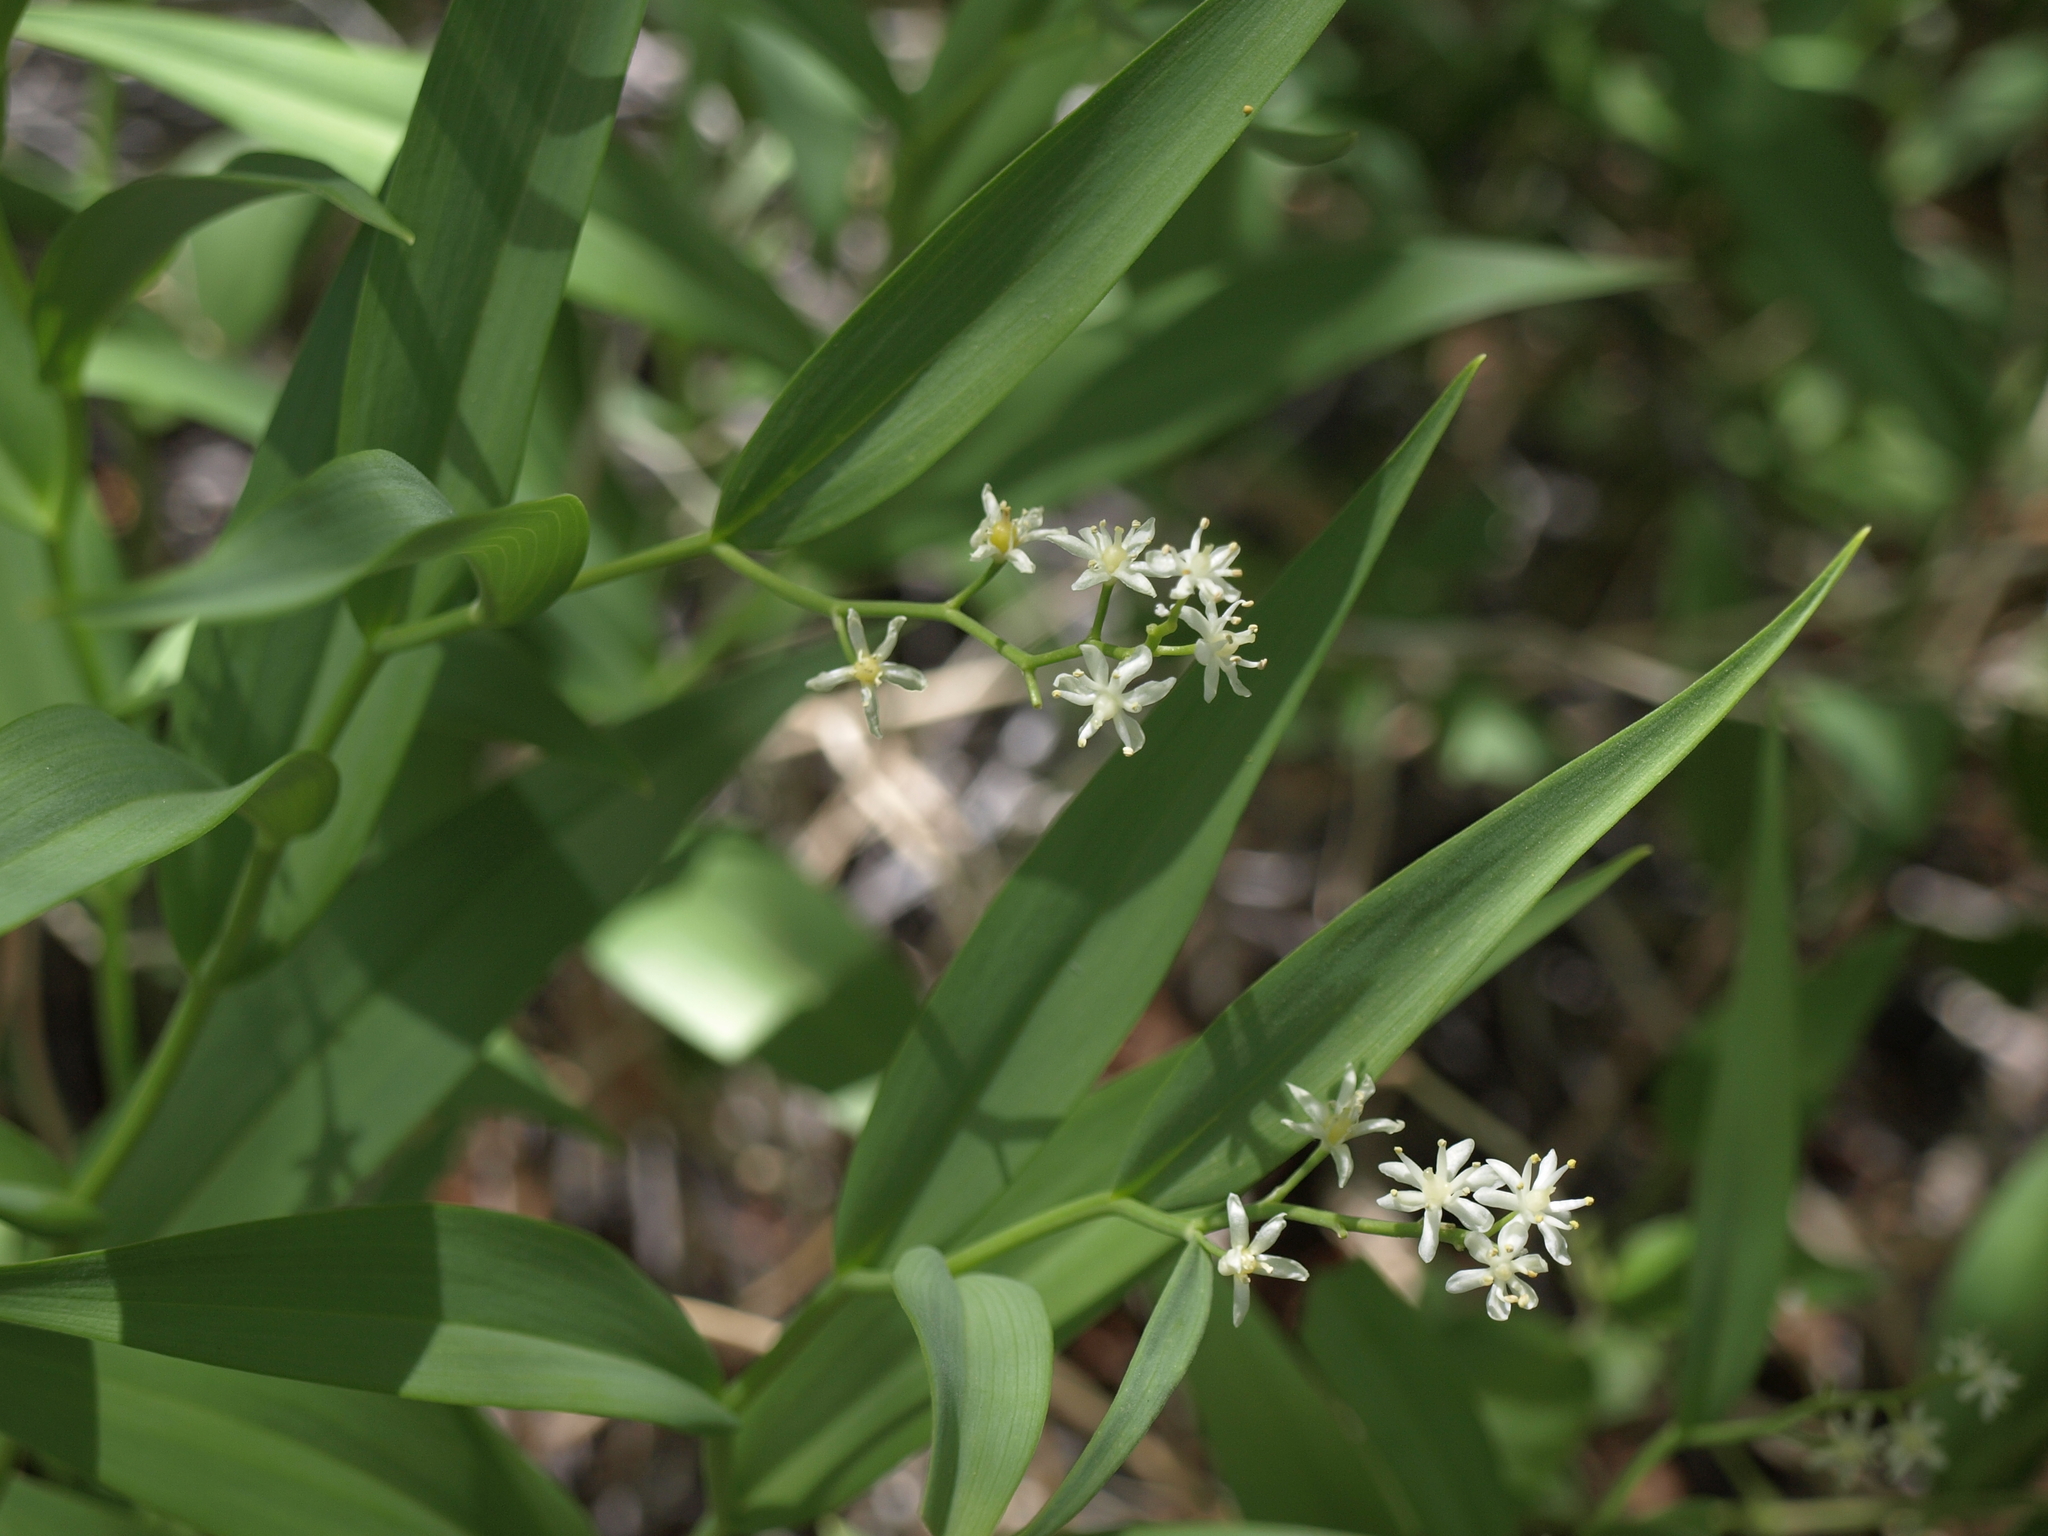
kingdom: Plantae
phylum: Tracheophyta
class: Liliopsida
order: Asparagales
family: Asparagaceae
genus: Maianthemum
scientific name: Maianthemum stellatum
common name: Little false solomon's seal
